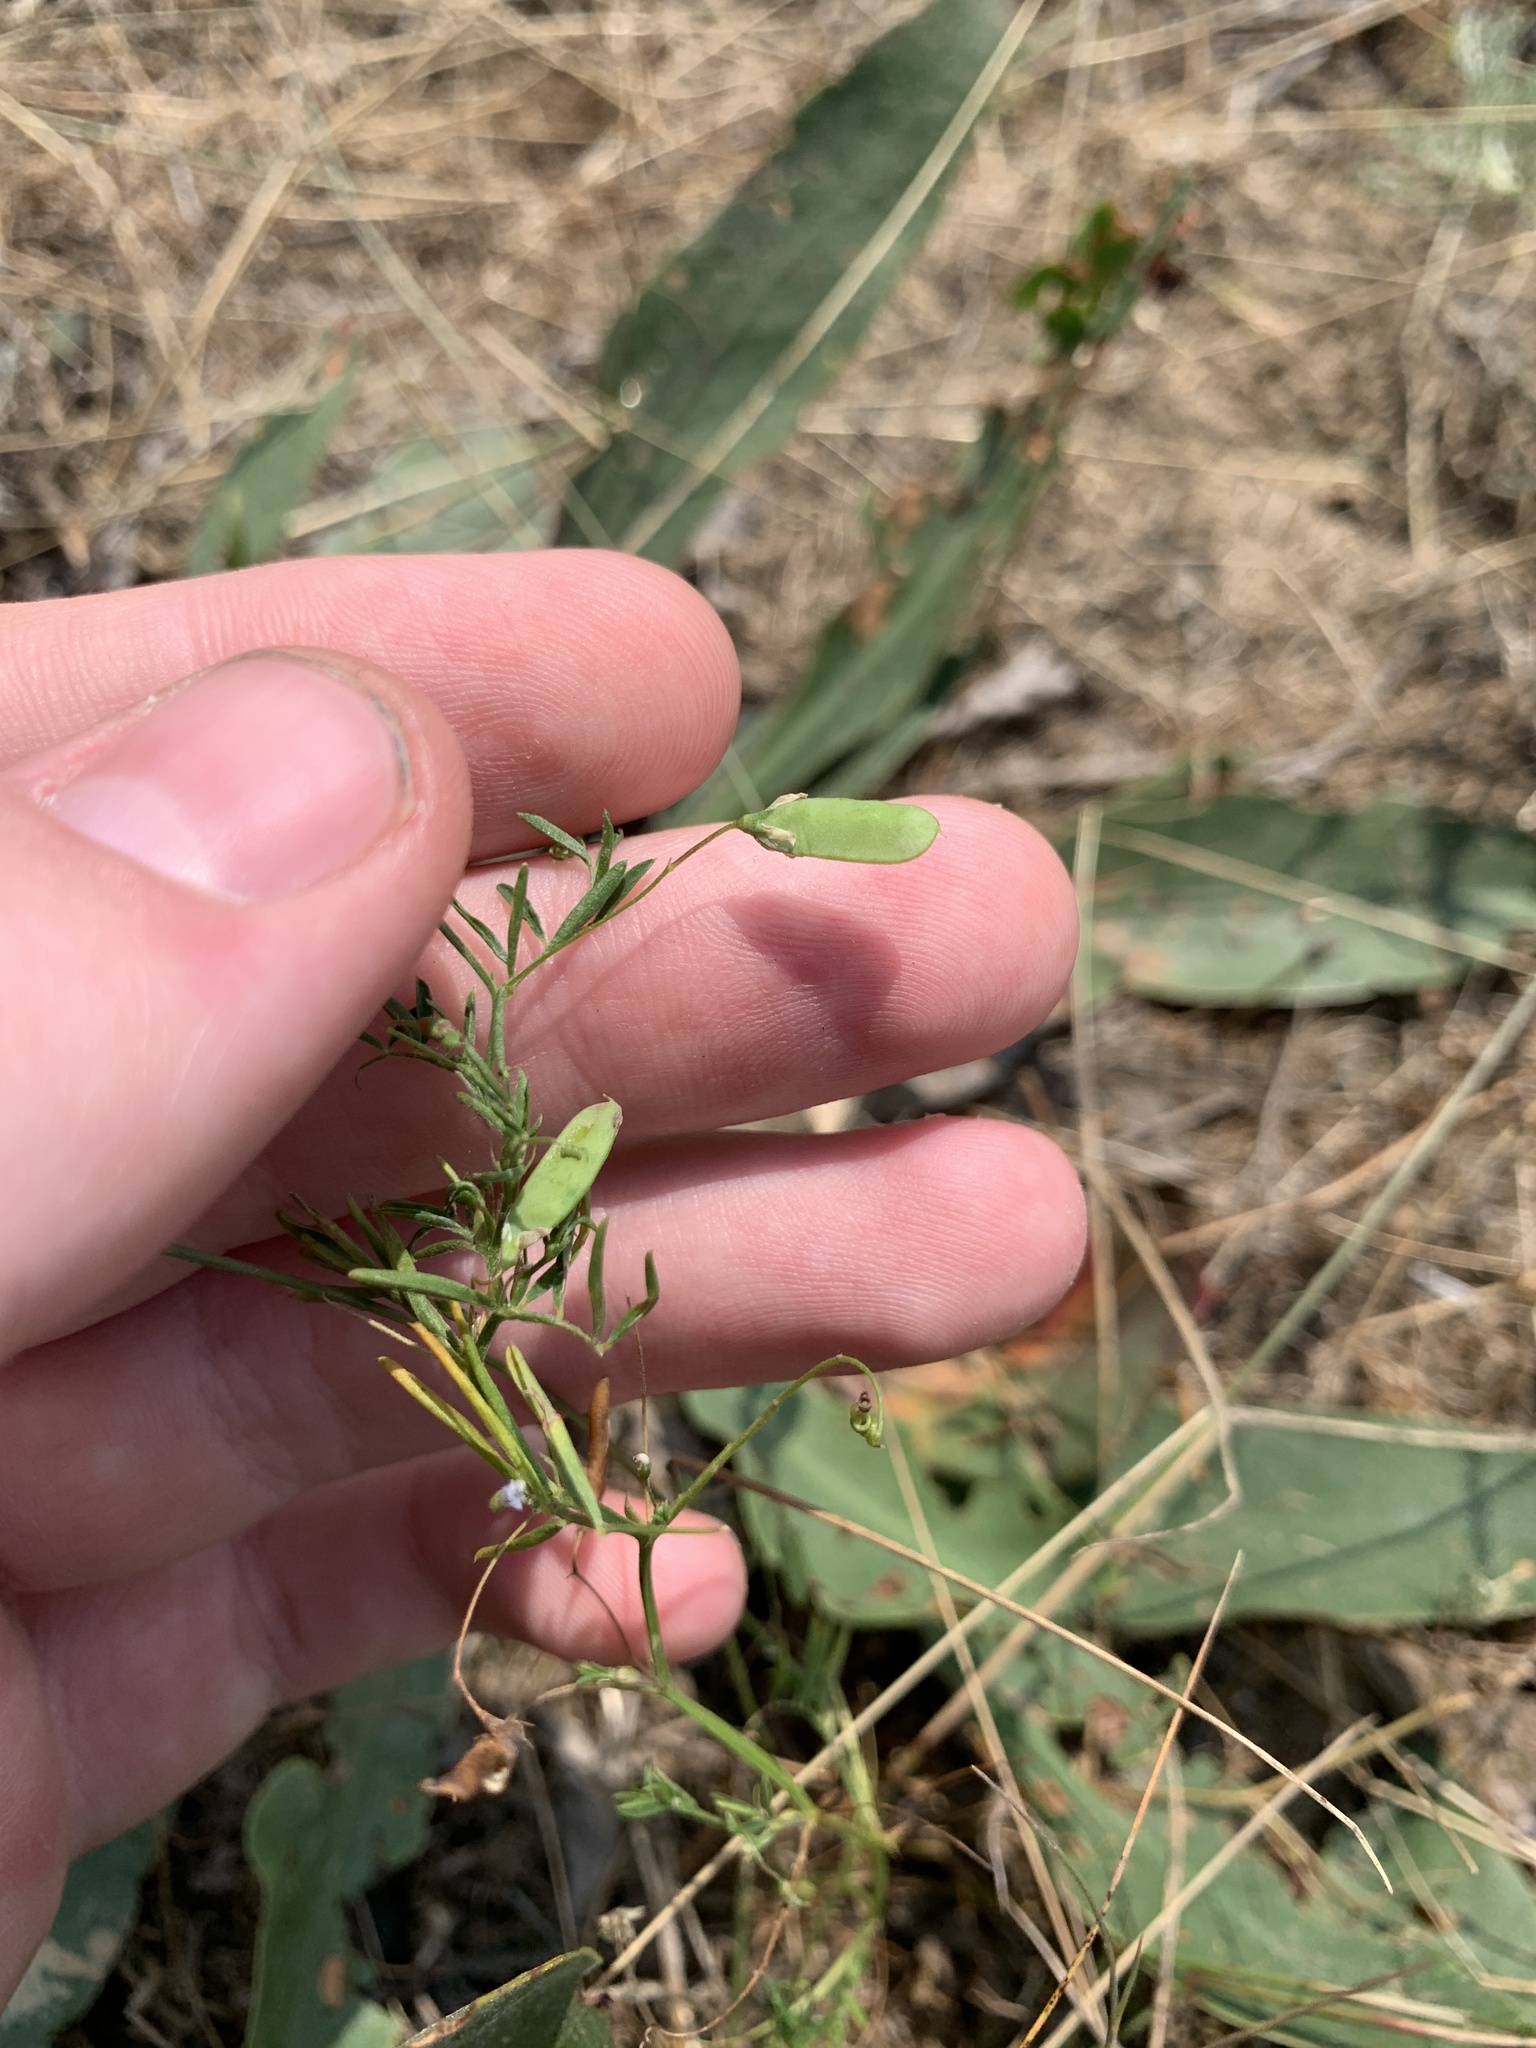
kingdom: Plantae
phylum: Tracheophyta
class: Magnoliopsida
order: Fabales
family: Fabaceae
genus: Vicia
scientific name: Vicia tetrasperma
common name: Smooth tare
